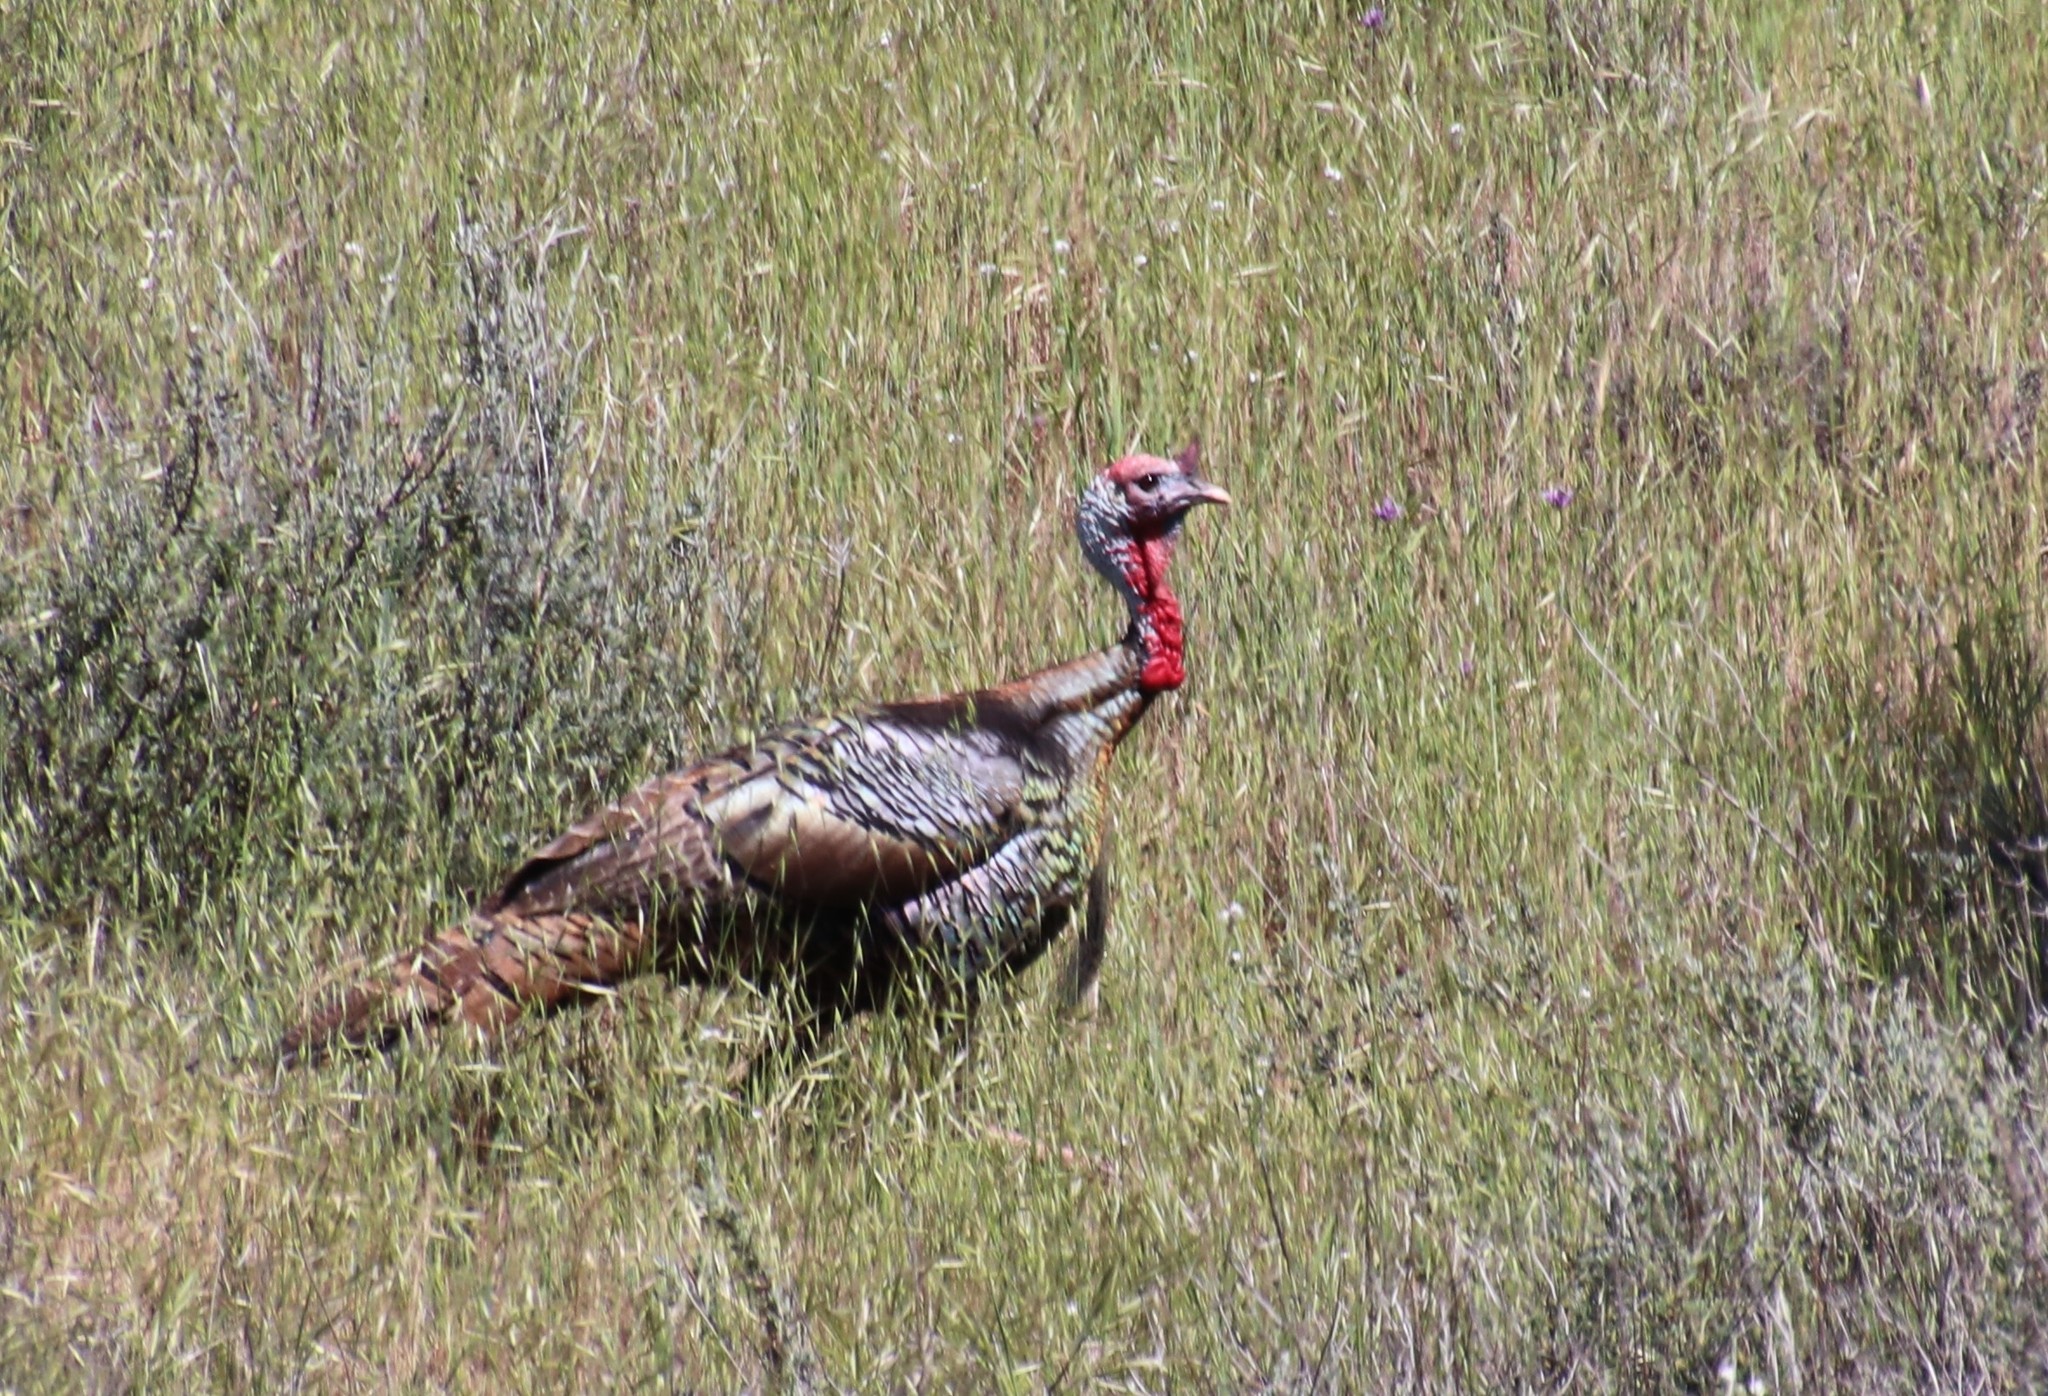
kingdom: Animalia
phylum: Chordata
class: Aves
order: Galliformes
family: Phasianidae
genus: Meleagris
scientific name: Meleagris gallopavo
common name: Wild turkey
